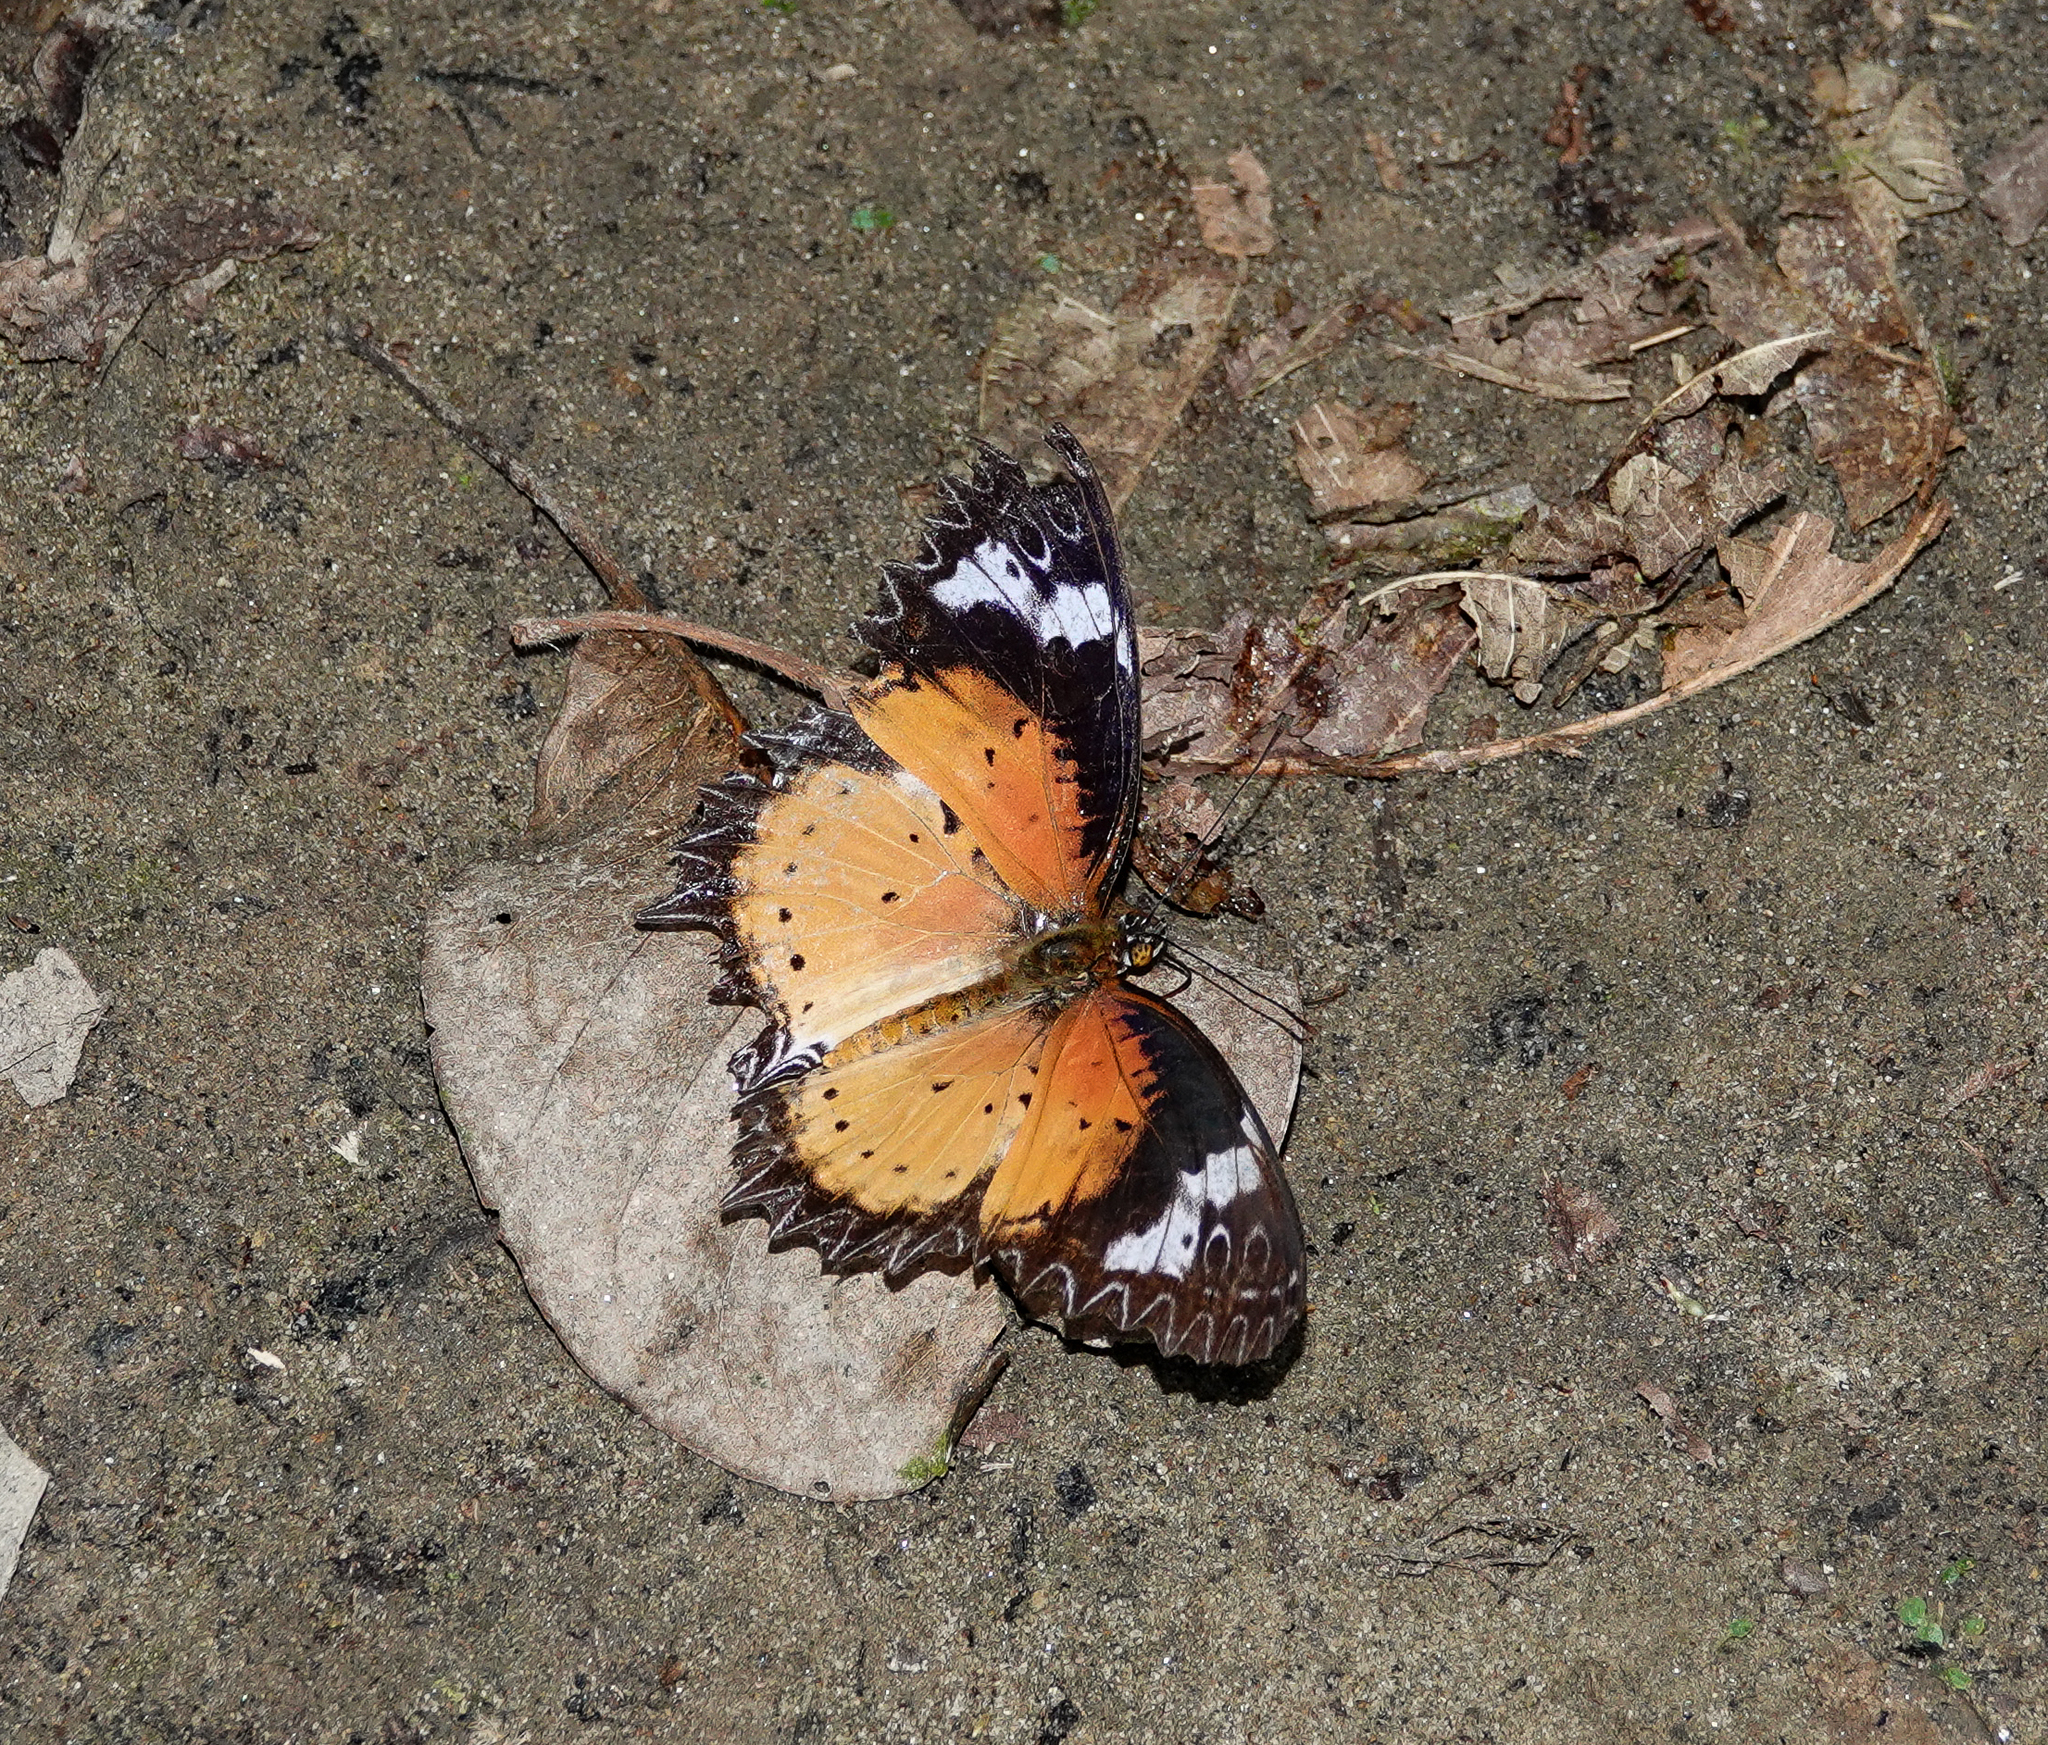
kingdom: Animalia
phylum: Arthropoda
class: Insecta
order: Lepidoptera
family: Nymphalidae
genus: Cethosia
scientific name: Cethosia cyane
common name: Leopard lacewing butterfly
